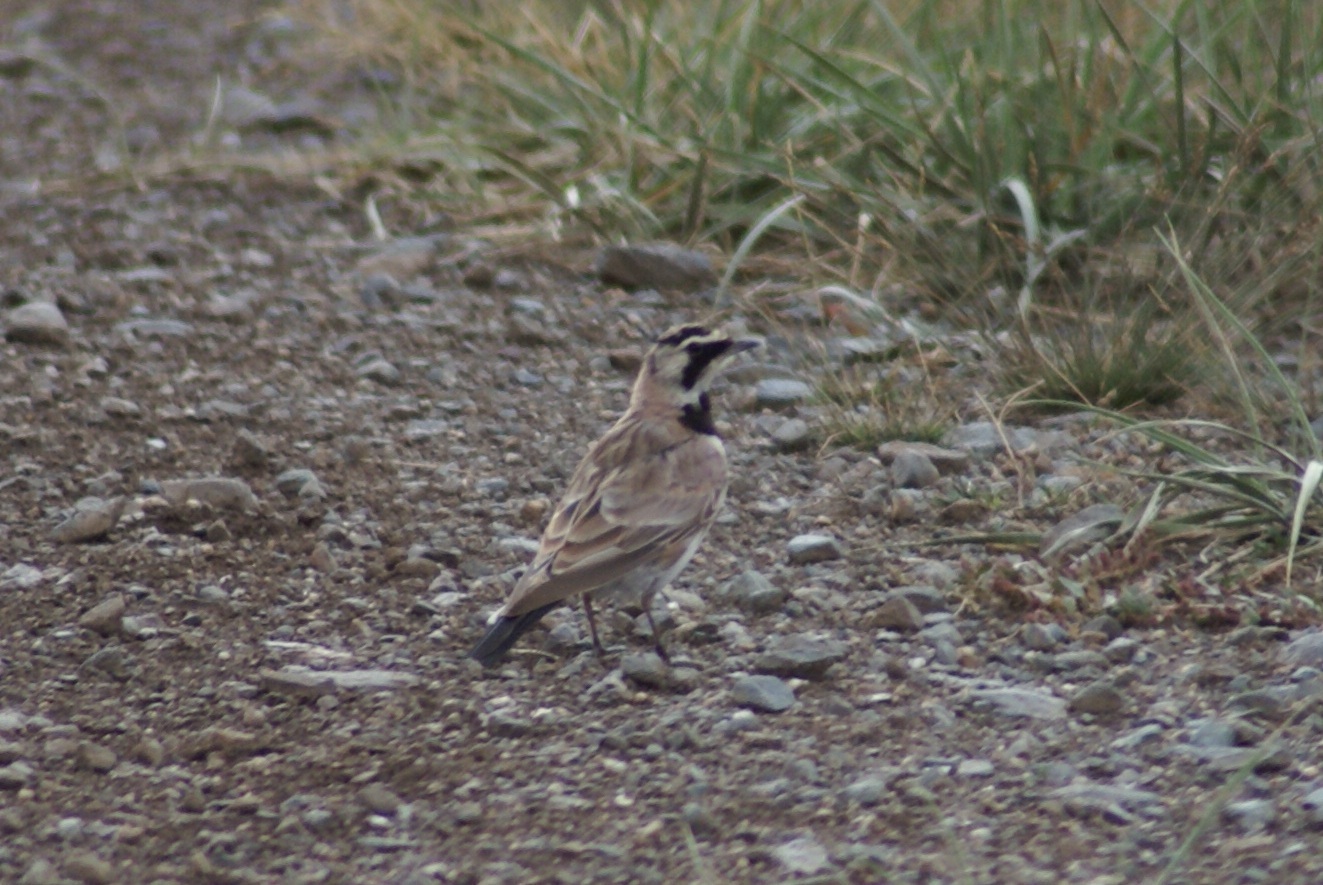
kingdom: Animalia
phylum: Chordata
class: Aves
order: Passeriformes
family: Alaudidae
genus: Eremophila
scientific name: Eremophila alpestris
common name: Horned lark
